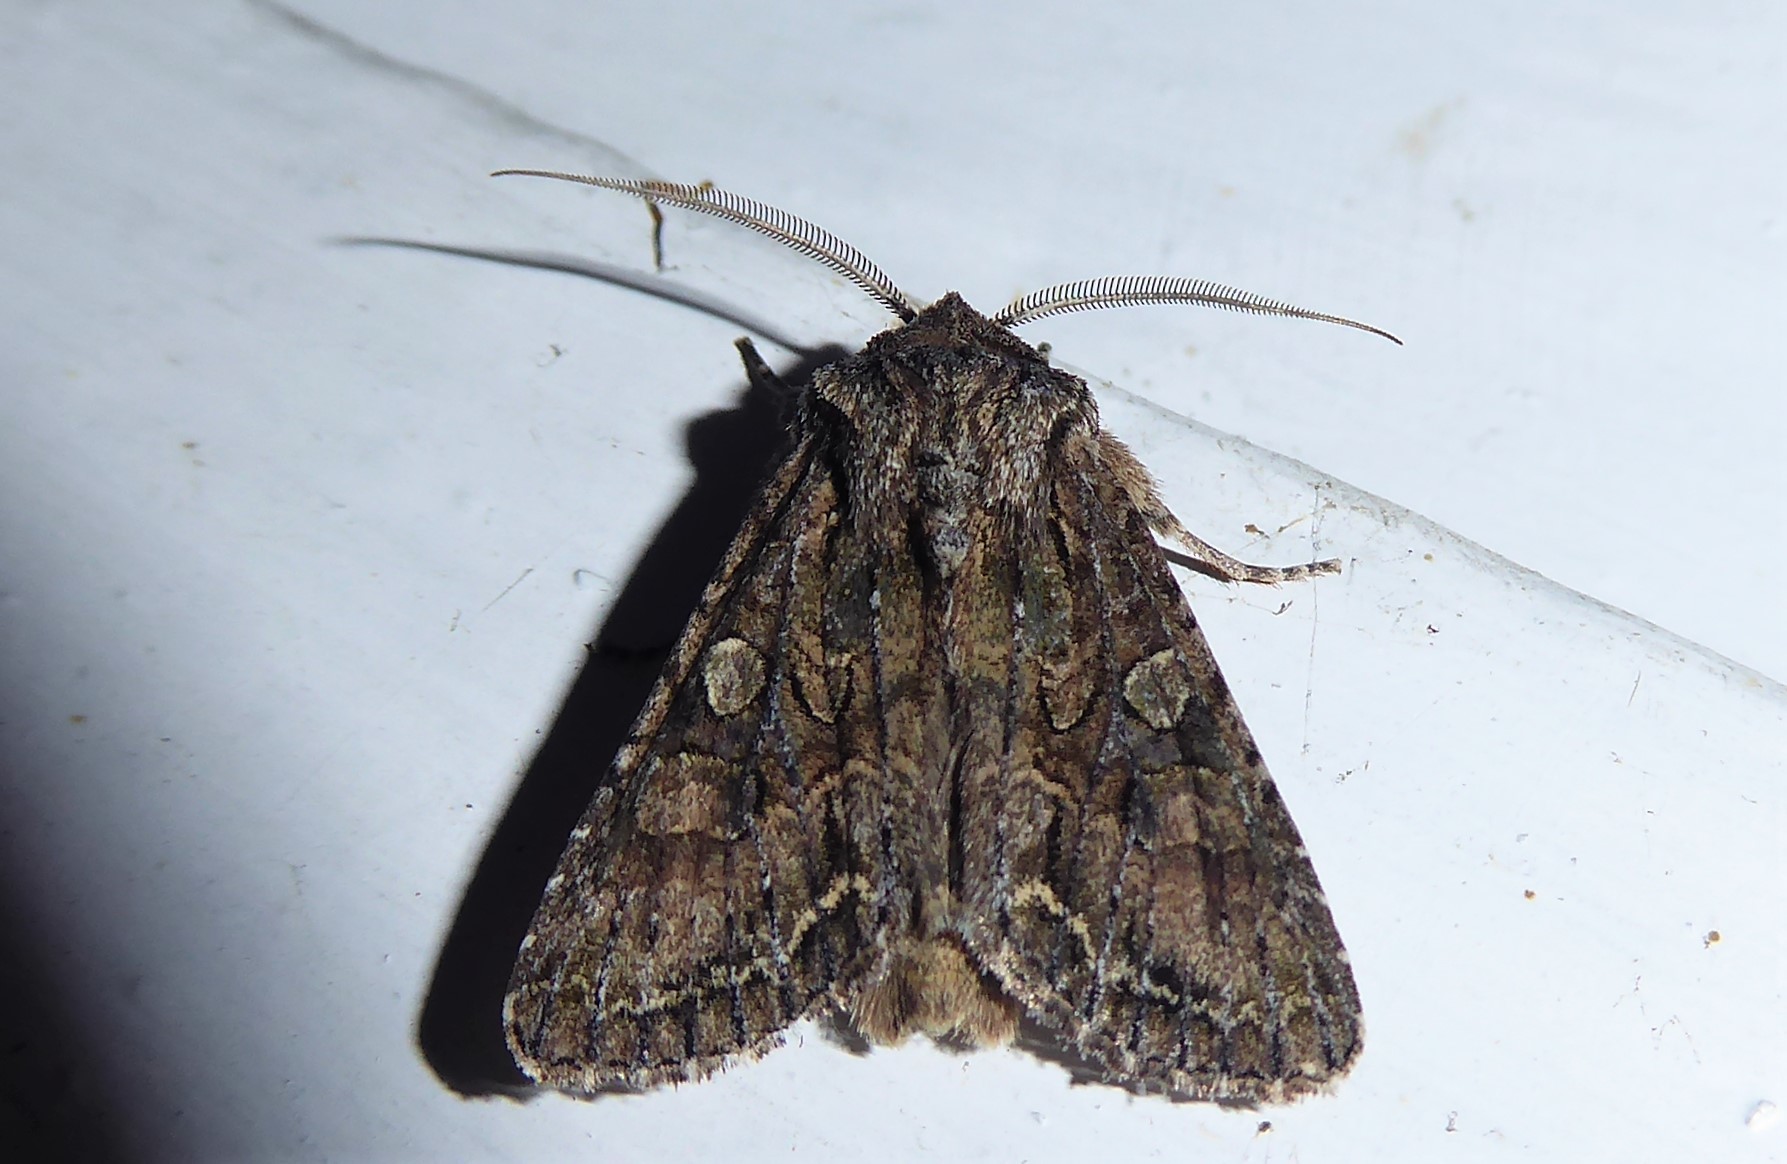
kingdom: Animalia
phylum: Arthropoda
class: Insecta
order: Lepidoptera
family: Noctuidae
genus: Ichneutica
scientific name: Ichneutica mutans
